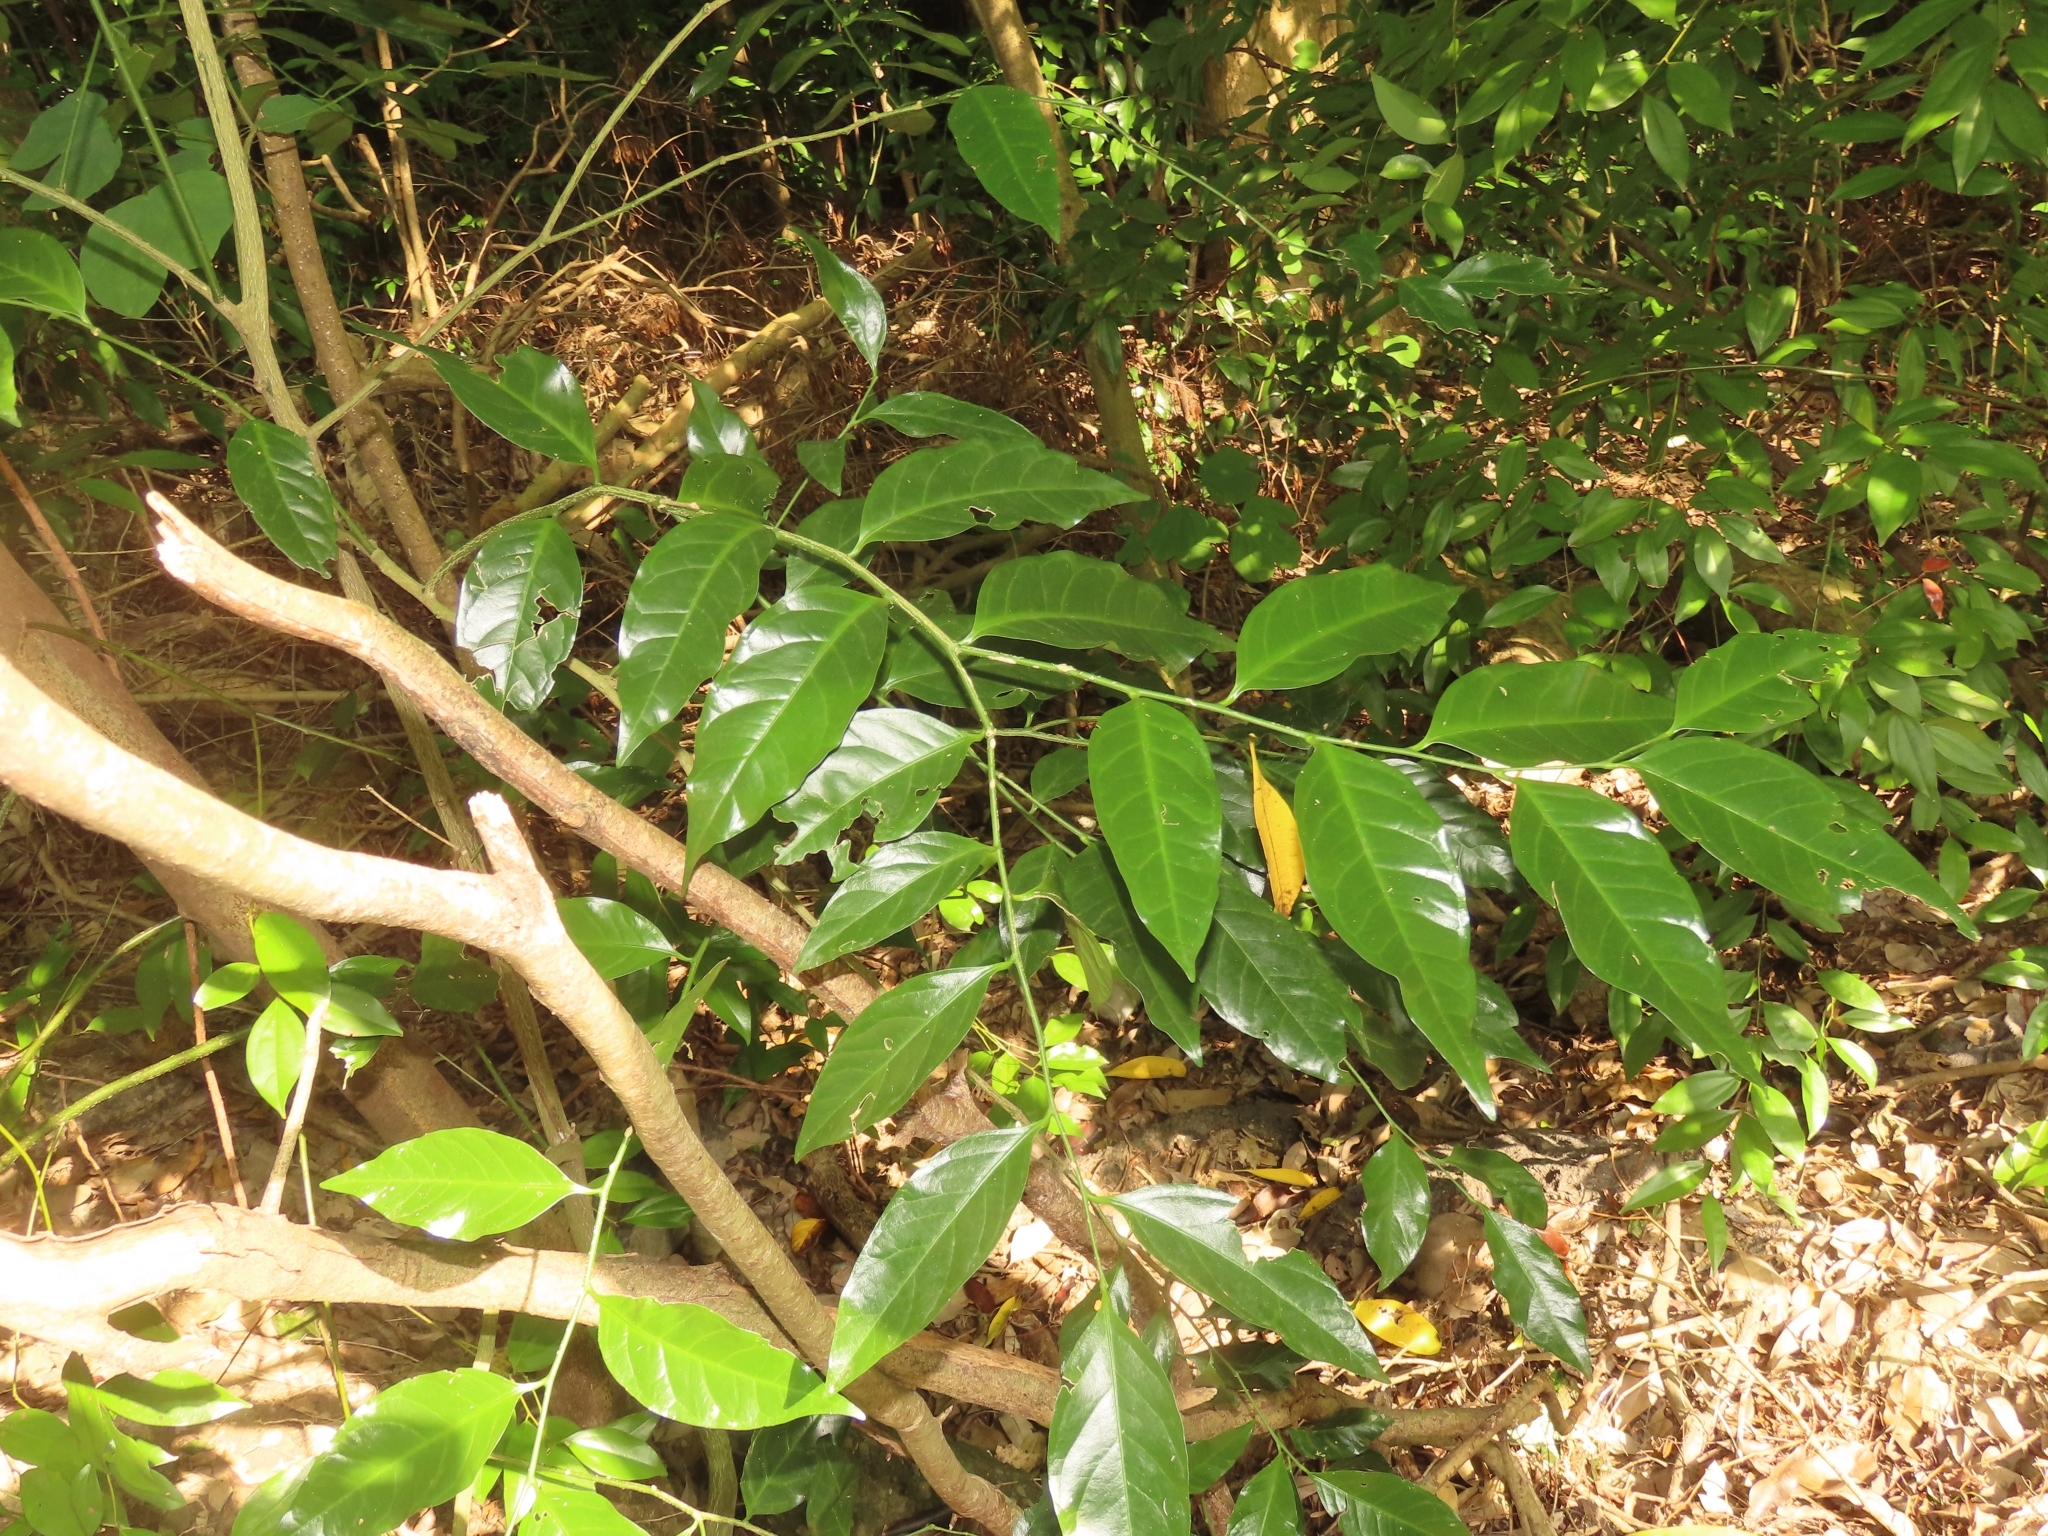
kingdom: Plantae
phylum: Tracheophyta
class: Magnoliopsida
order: Santalales
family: Opiliaceae
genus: Champereia
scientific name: Champereia manillana
